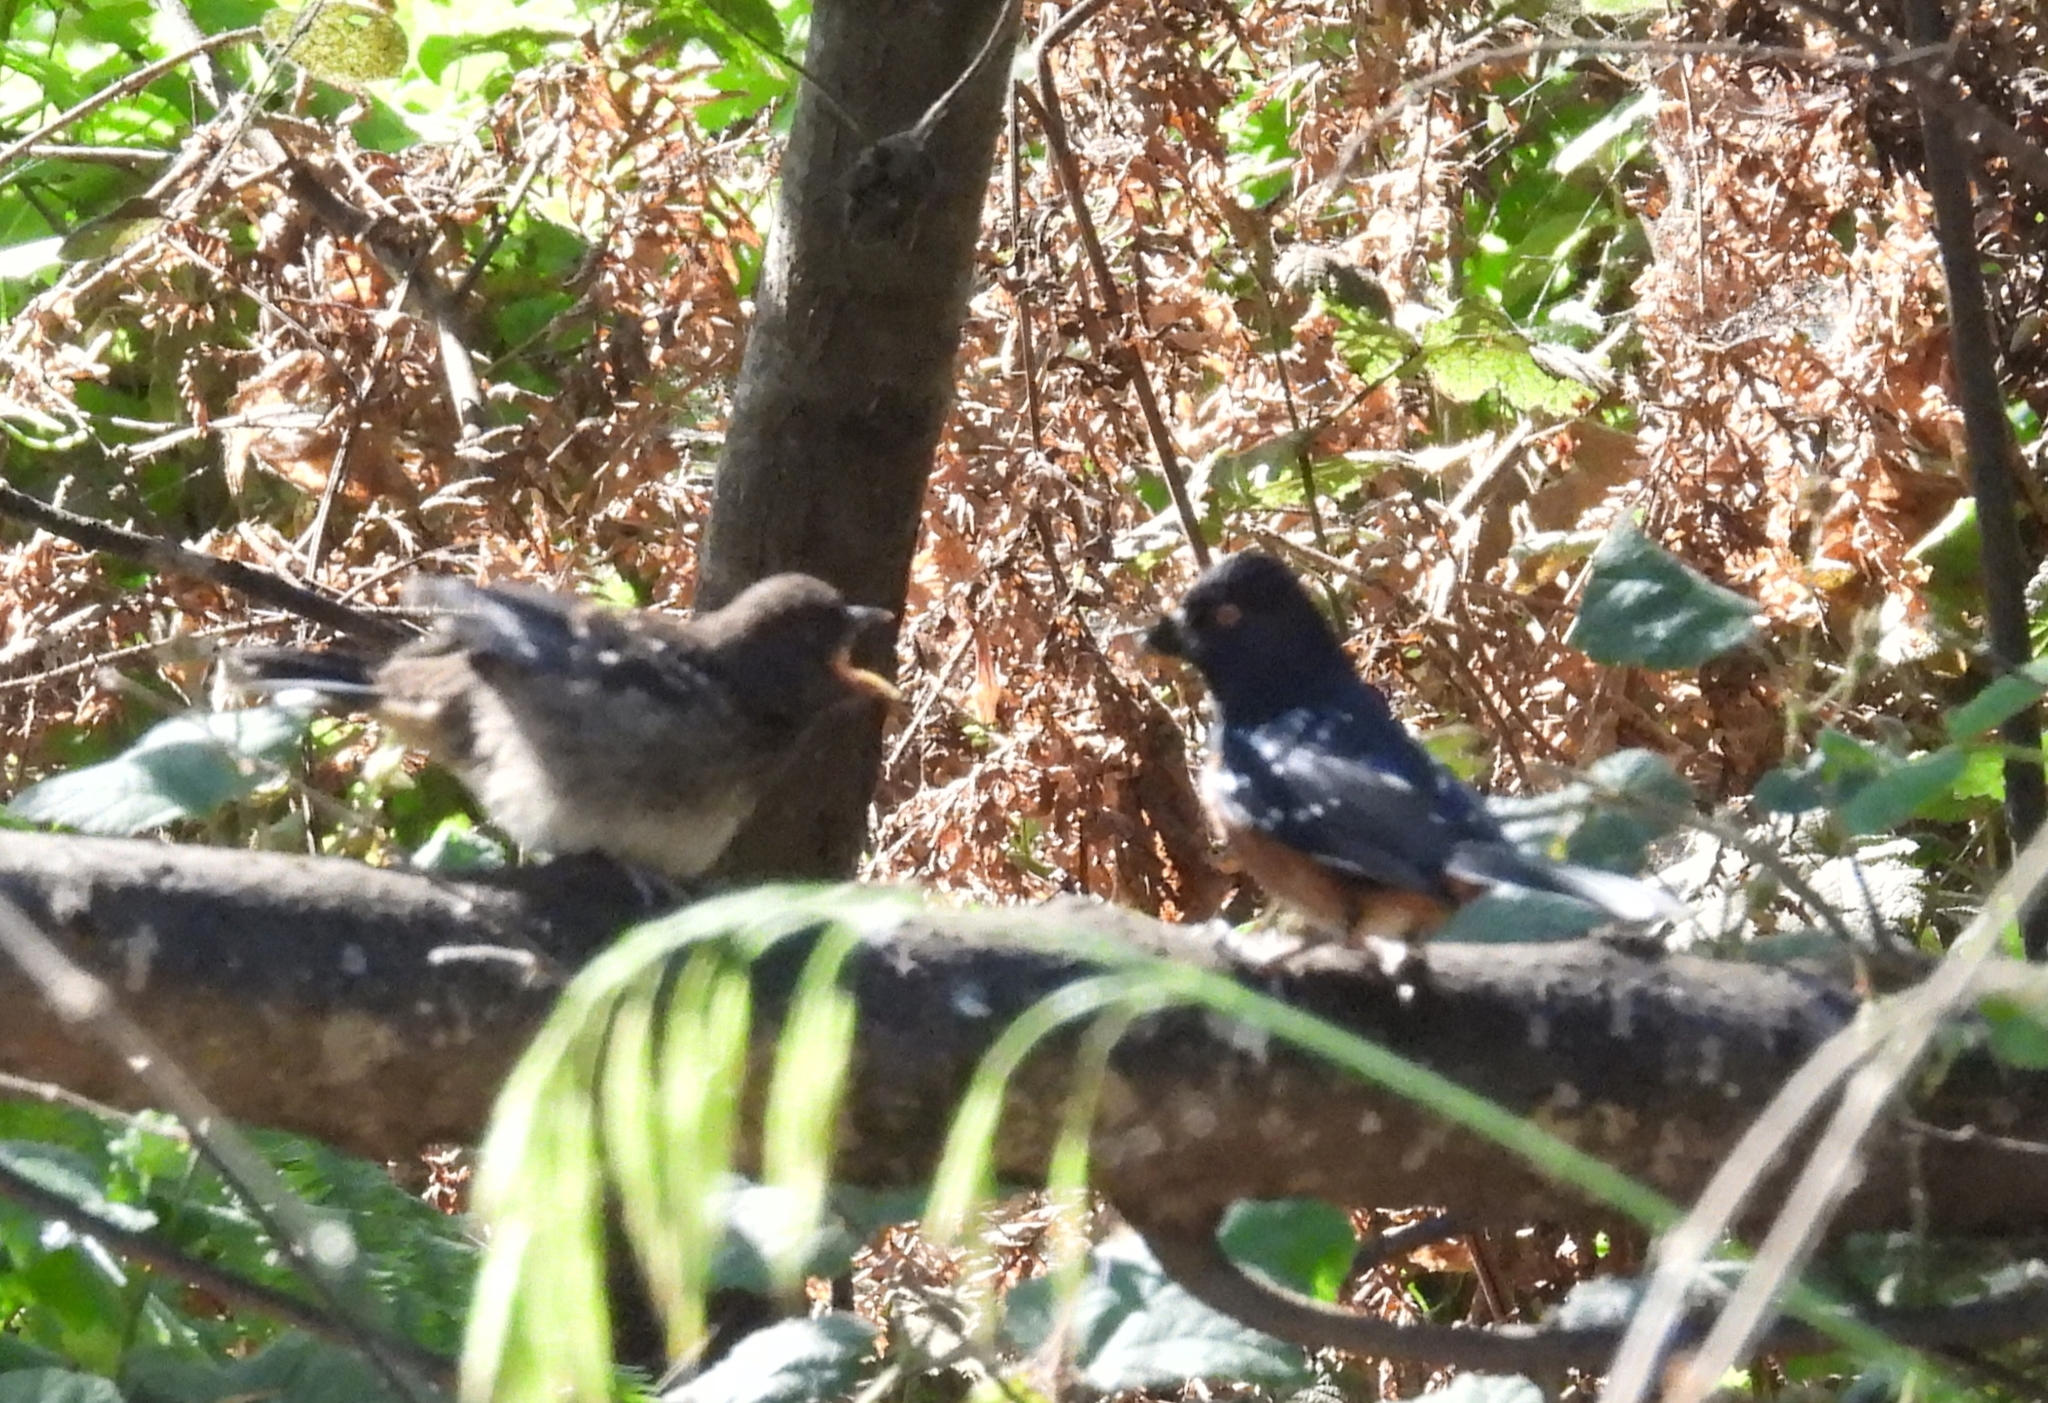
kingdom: Animalia
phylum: Chordata
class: Aves
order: Passeriformes
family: Passerellidae
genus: Pipilo
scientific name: Pipilo maculatus
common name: Spotted towhee
